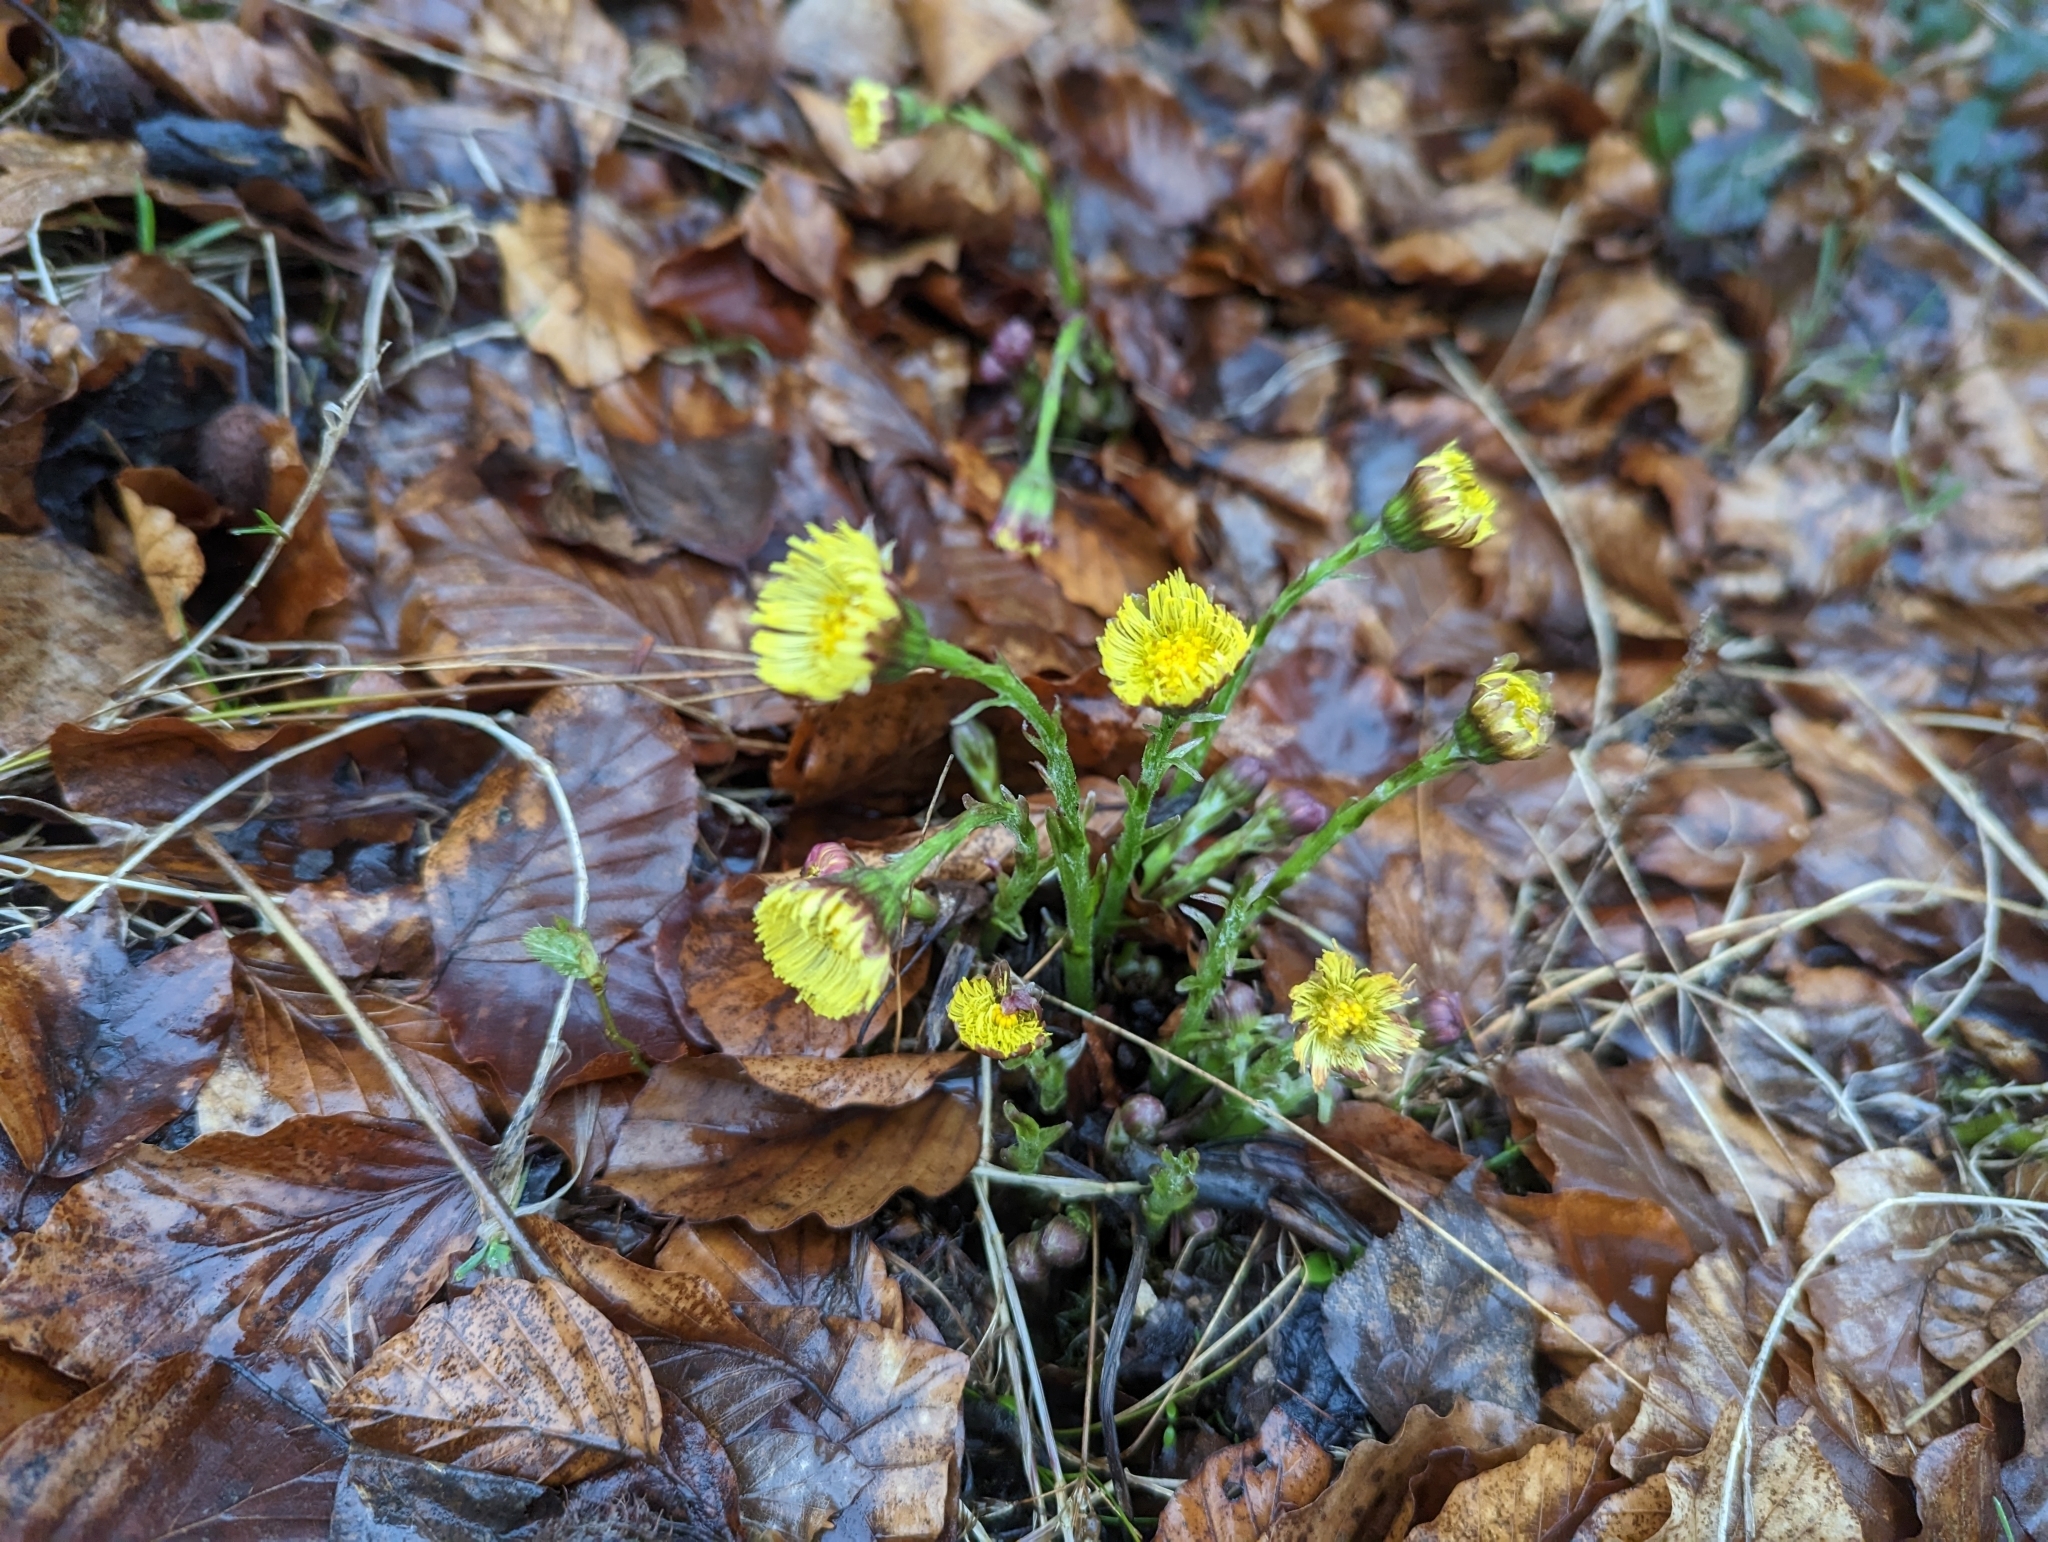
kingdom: Plantae
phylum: Tracheophyta
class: Magnoliopsida
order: Asterales
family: Asteraceae
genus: Tussilago
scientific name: Tussilago farfara
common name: Coltsfoot
